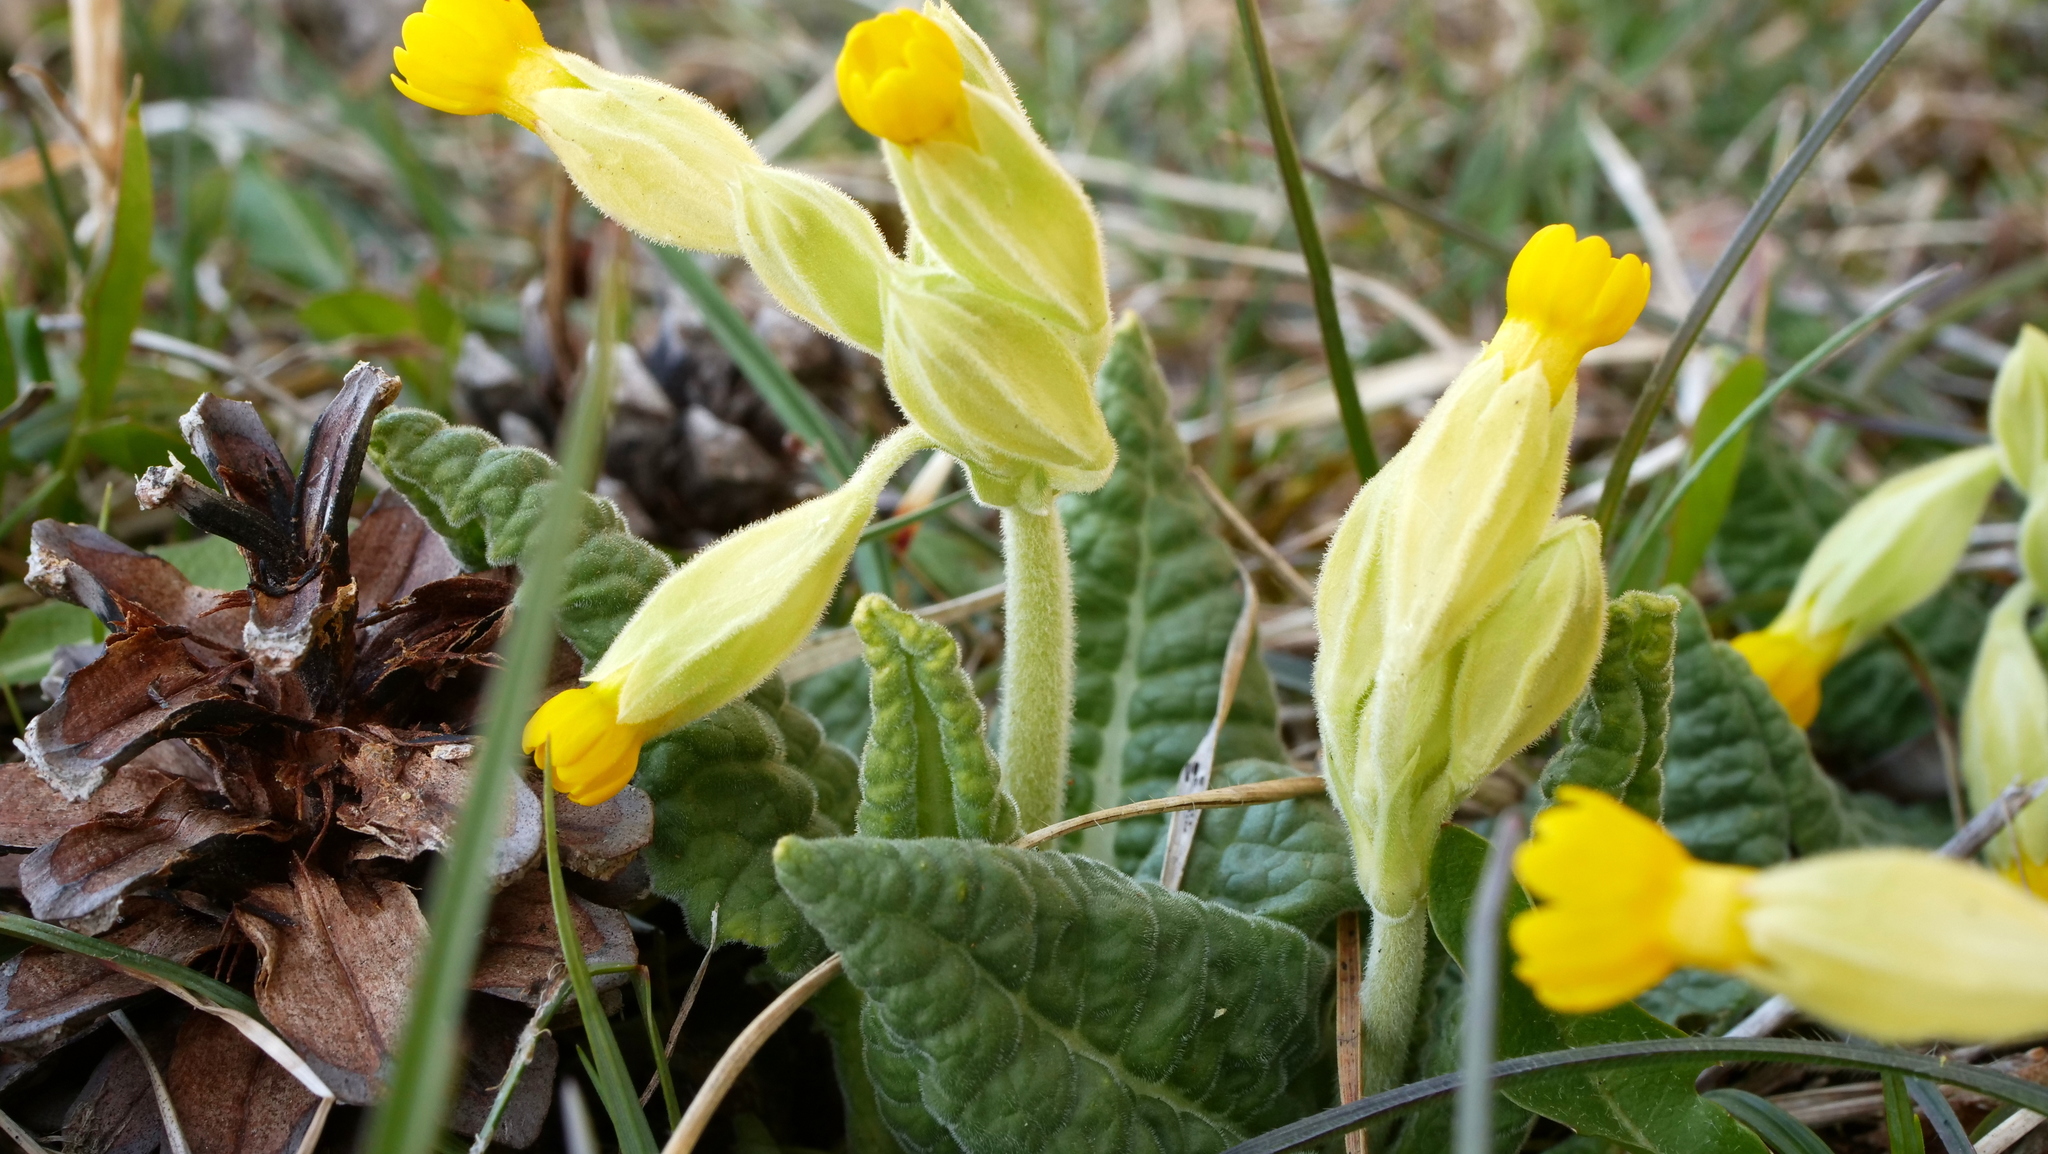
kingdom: Plantae
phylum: Tracheophyta
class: Magnoliopsida
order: Ericales
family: Primulaceae
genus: Primula
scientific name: Primula veris
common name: Cowslip
